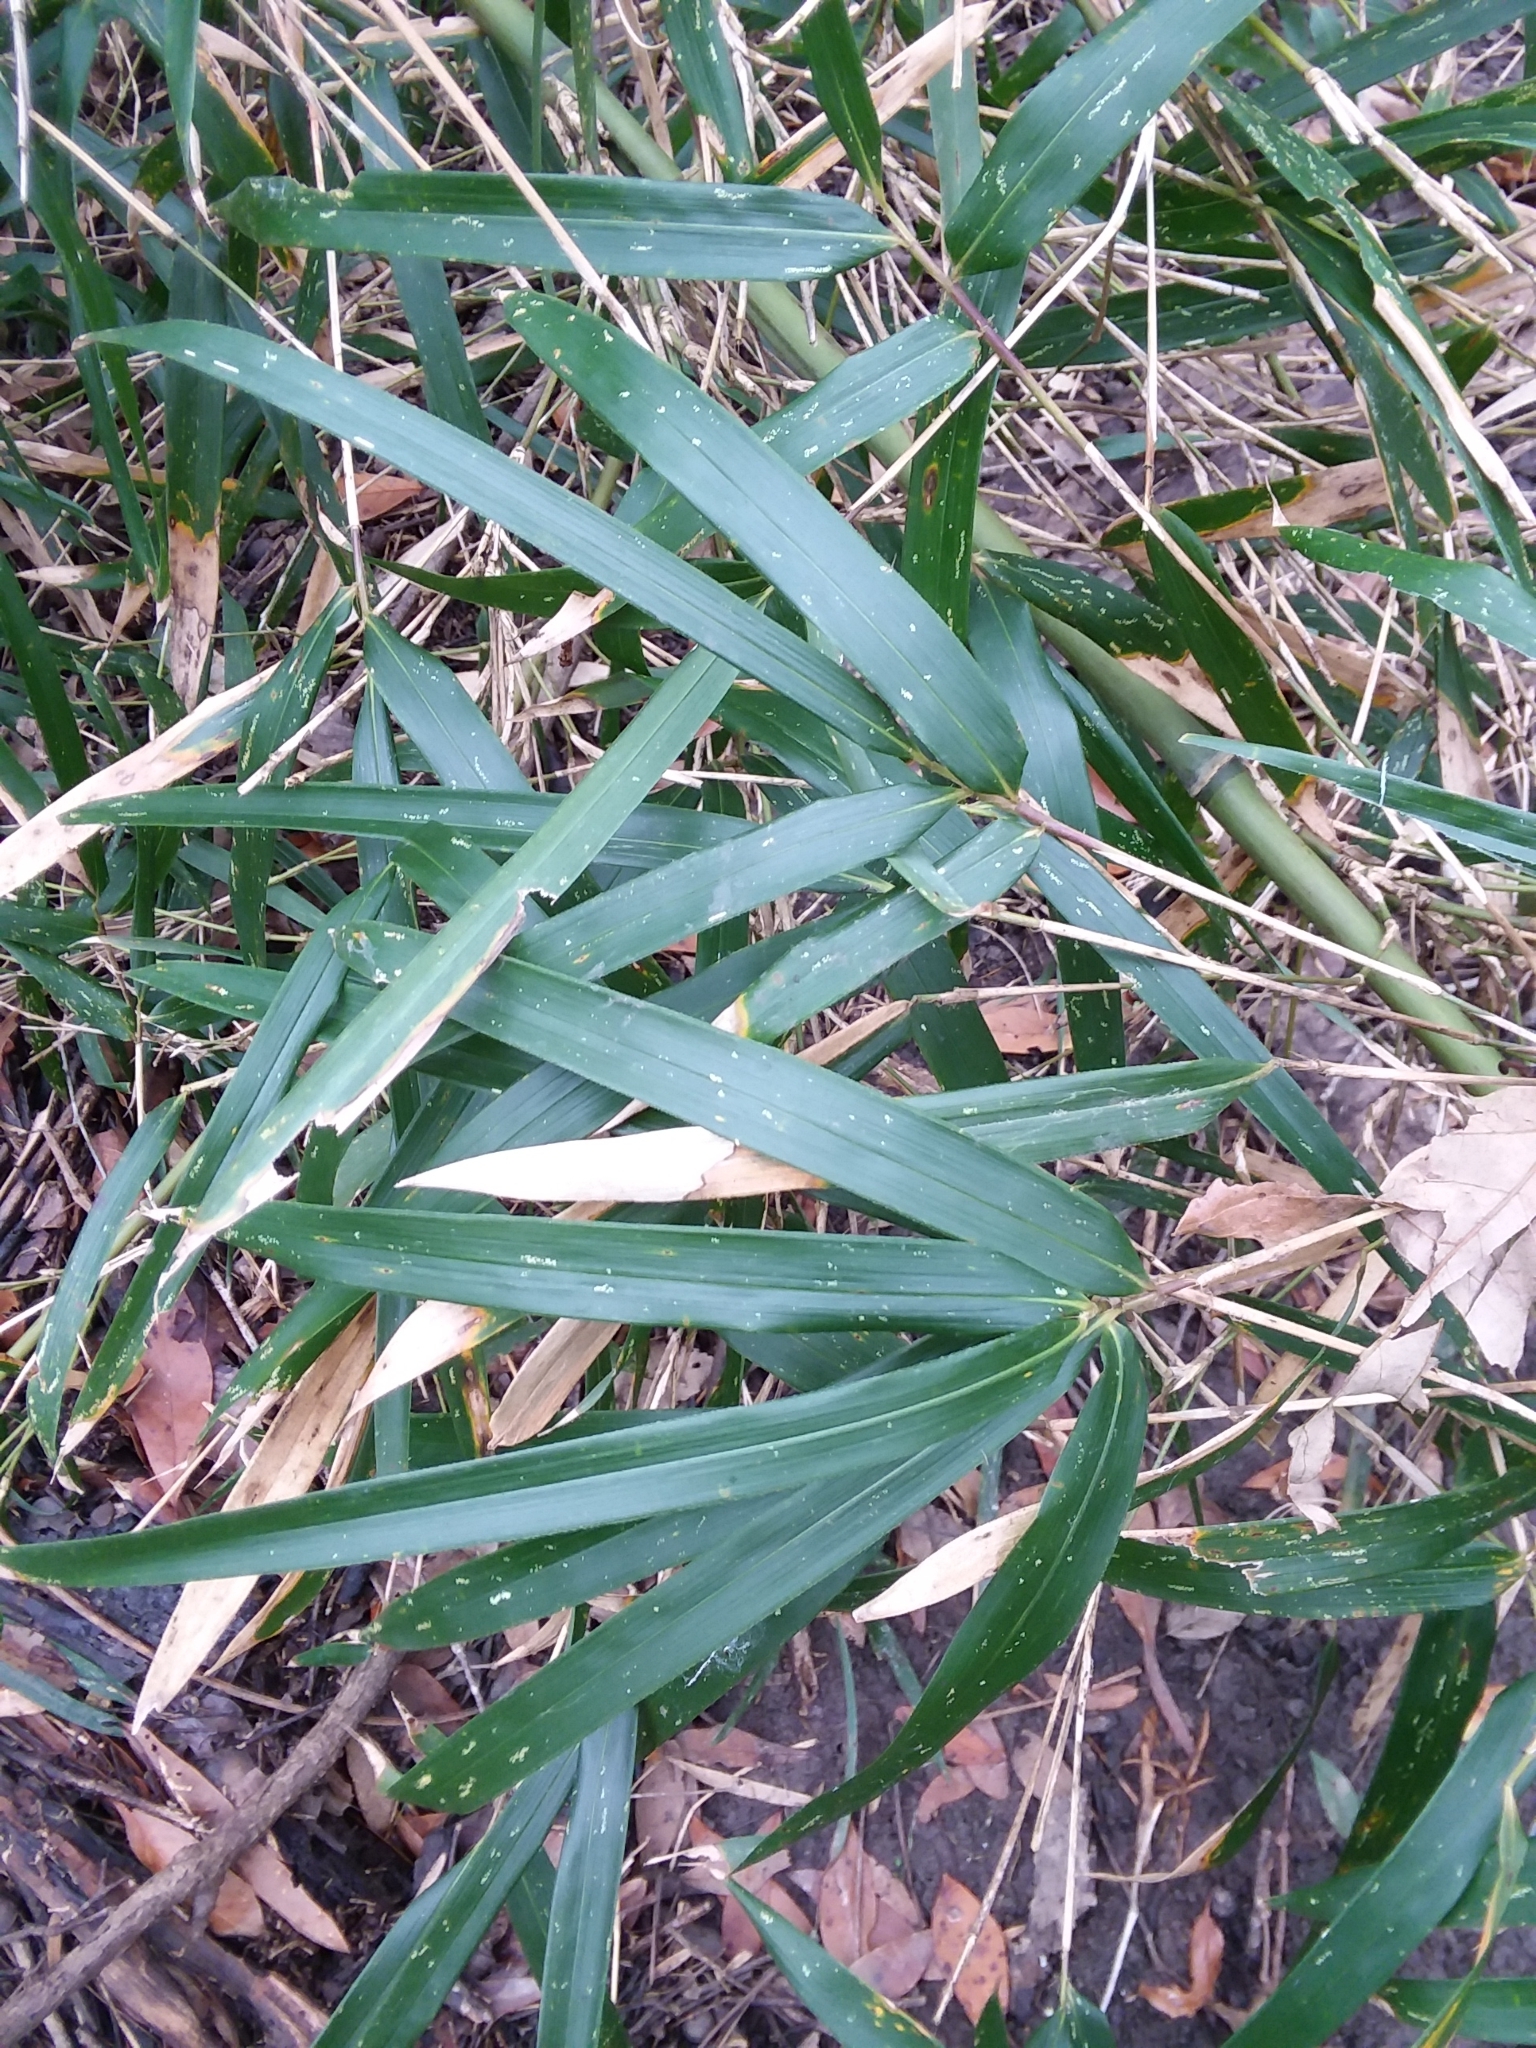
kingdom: Plantae
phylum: Tracheophyta
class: Liliopsida
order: Poales
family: Poaceae
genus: Arundinaria
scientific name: Arundinaria gigantea
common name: Giant cane
